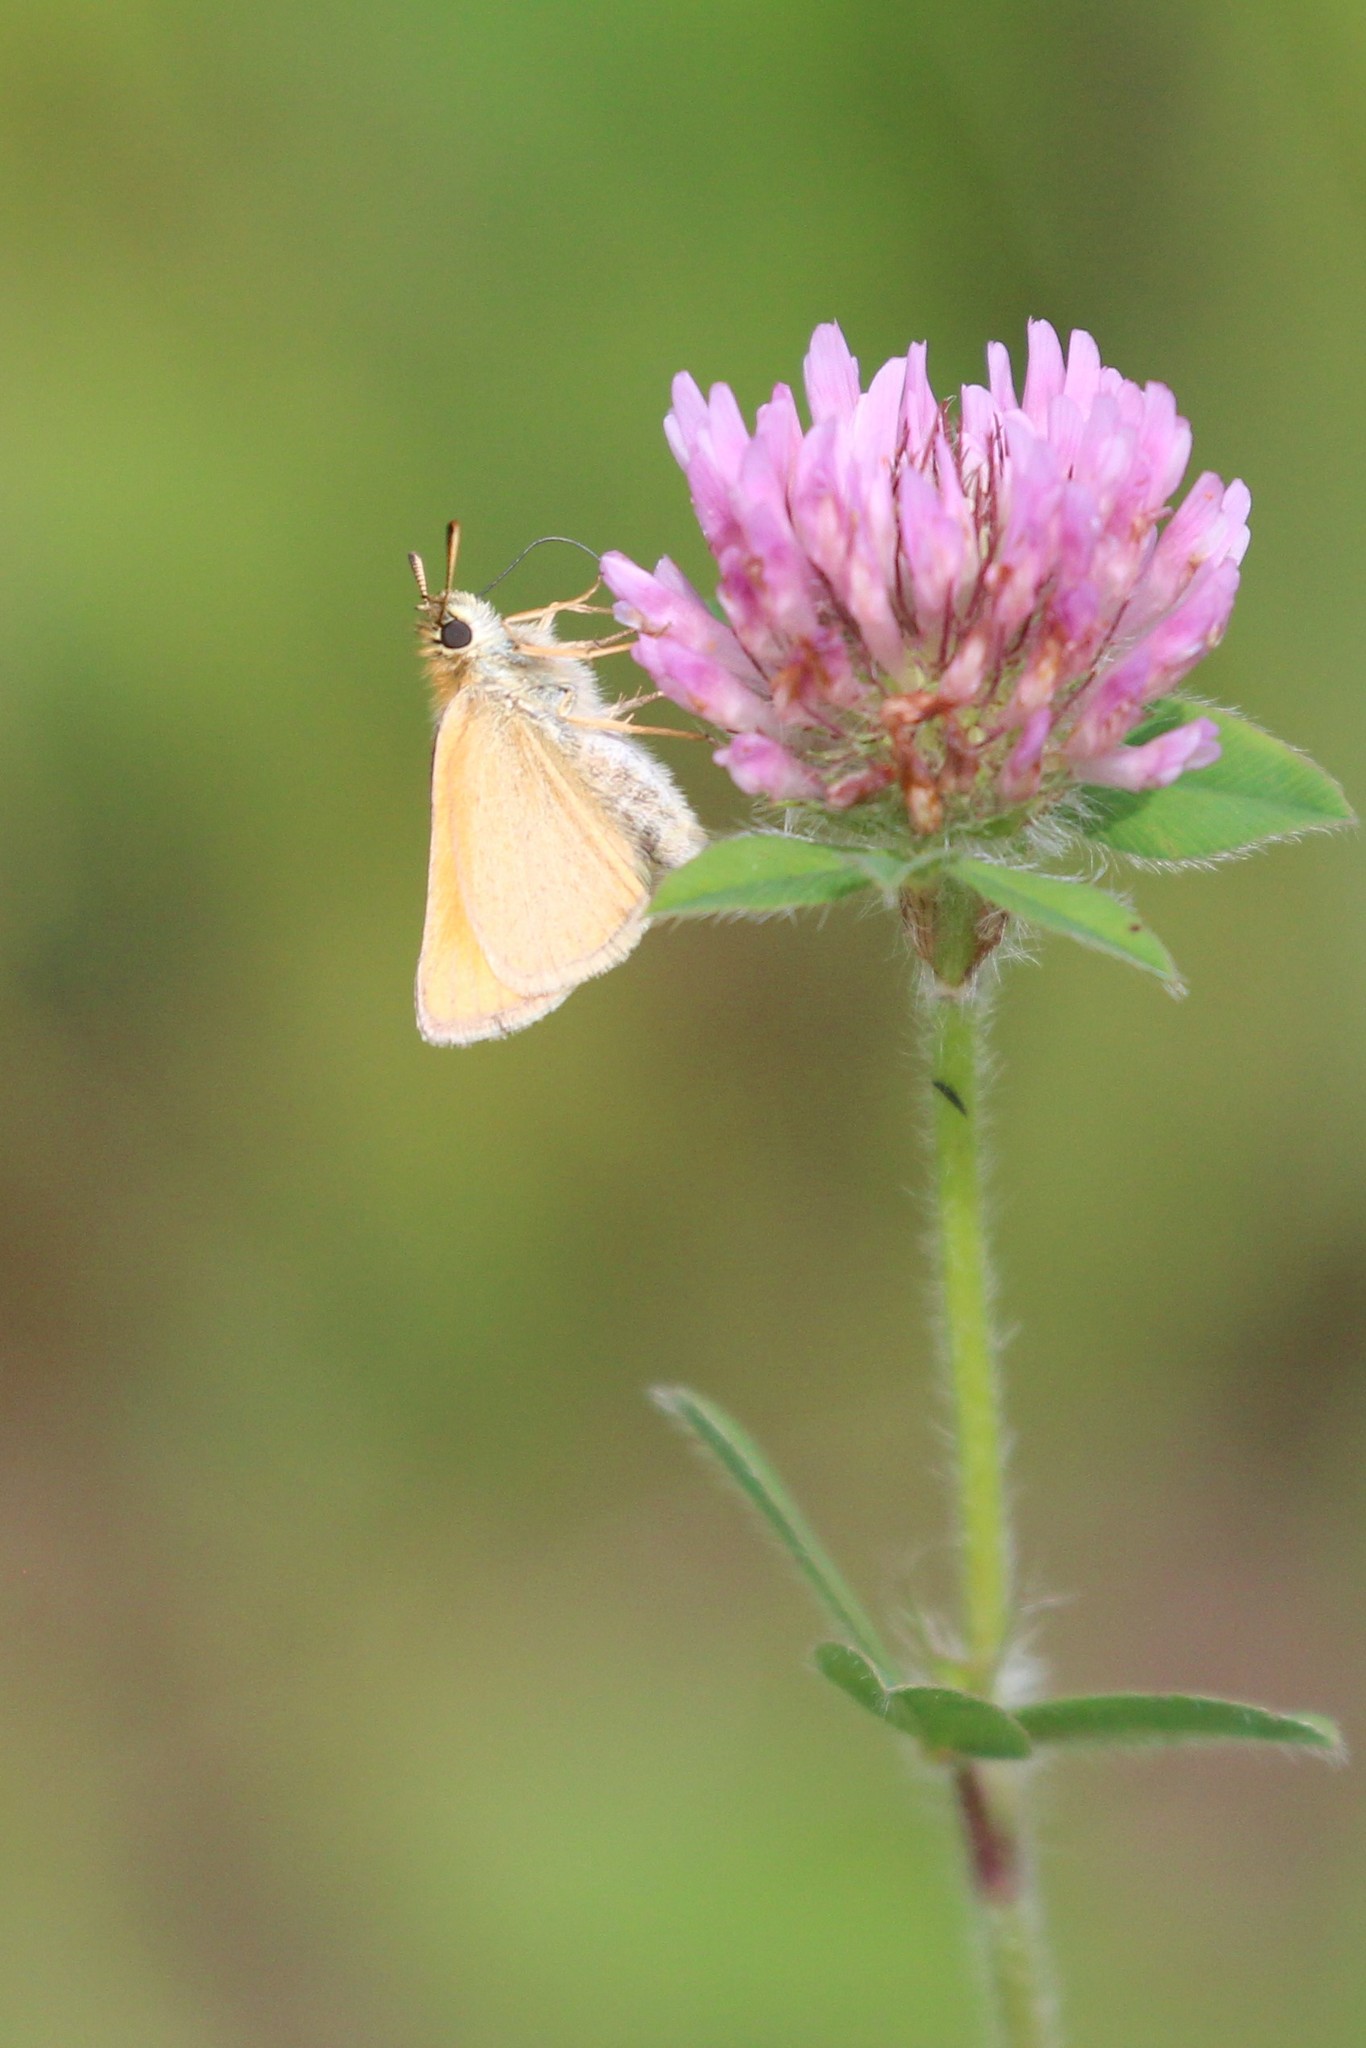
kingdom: Animalia
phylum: Arthropoda
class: Insecta
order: Lepidoptera
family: Hesperiidae
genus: Thymelicus
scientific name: Thymelicus lineola
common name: Essex skipper
